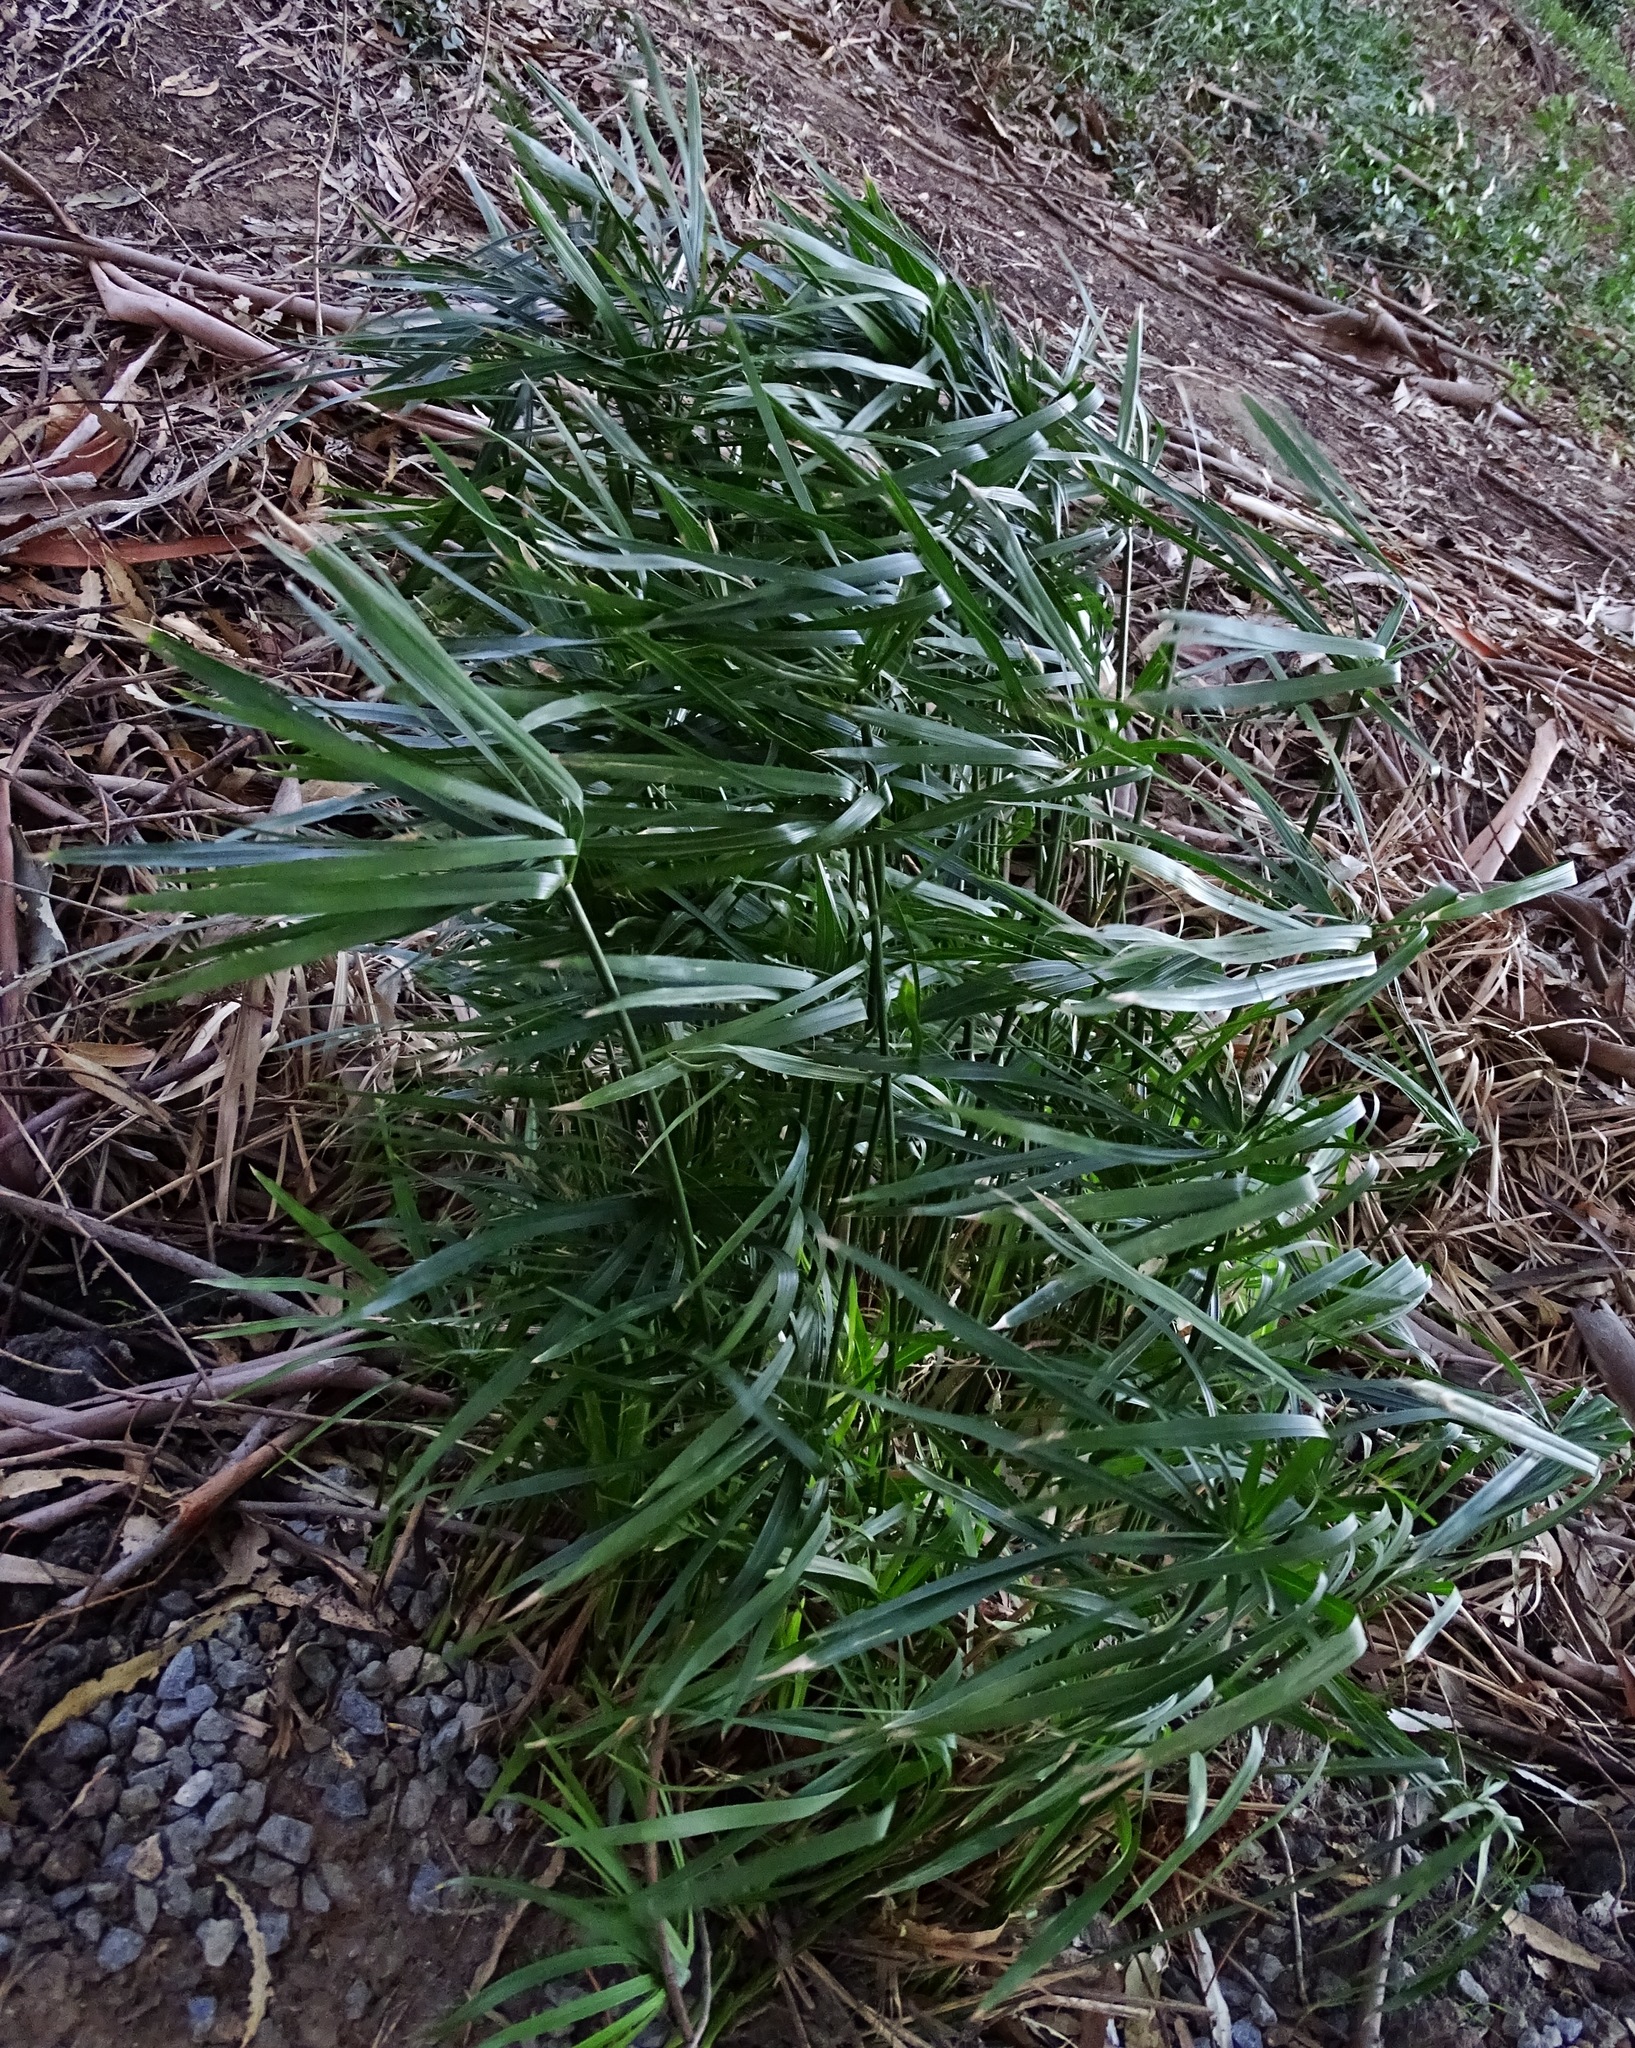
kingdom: Plantae
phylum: Tracheophyta
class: Liliopsida
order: Poales
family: Cyperaceae
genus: Cyperus
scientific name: Cyperus alternifolius
